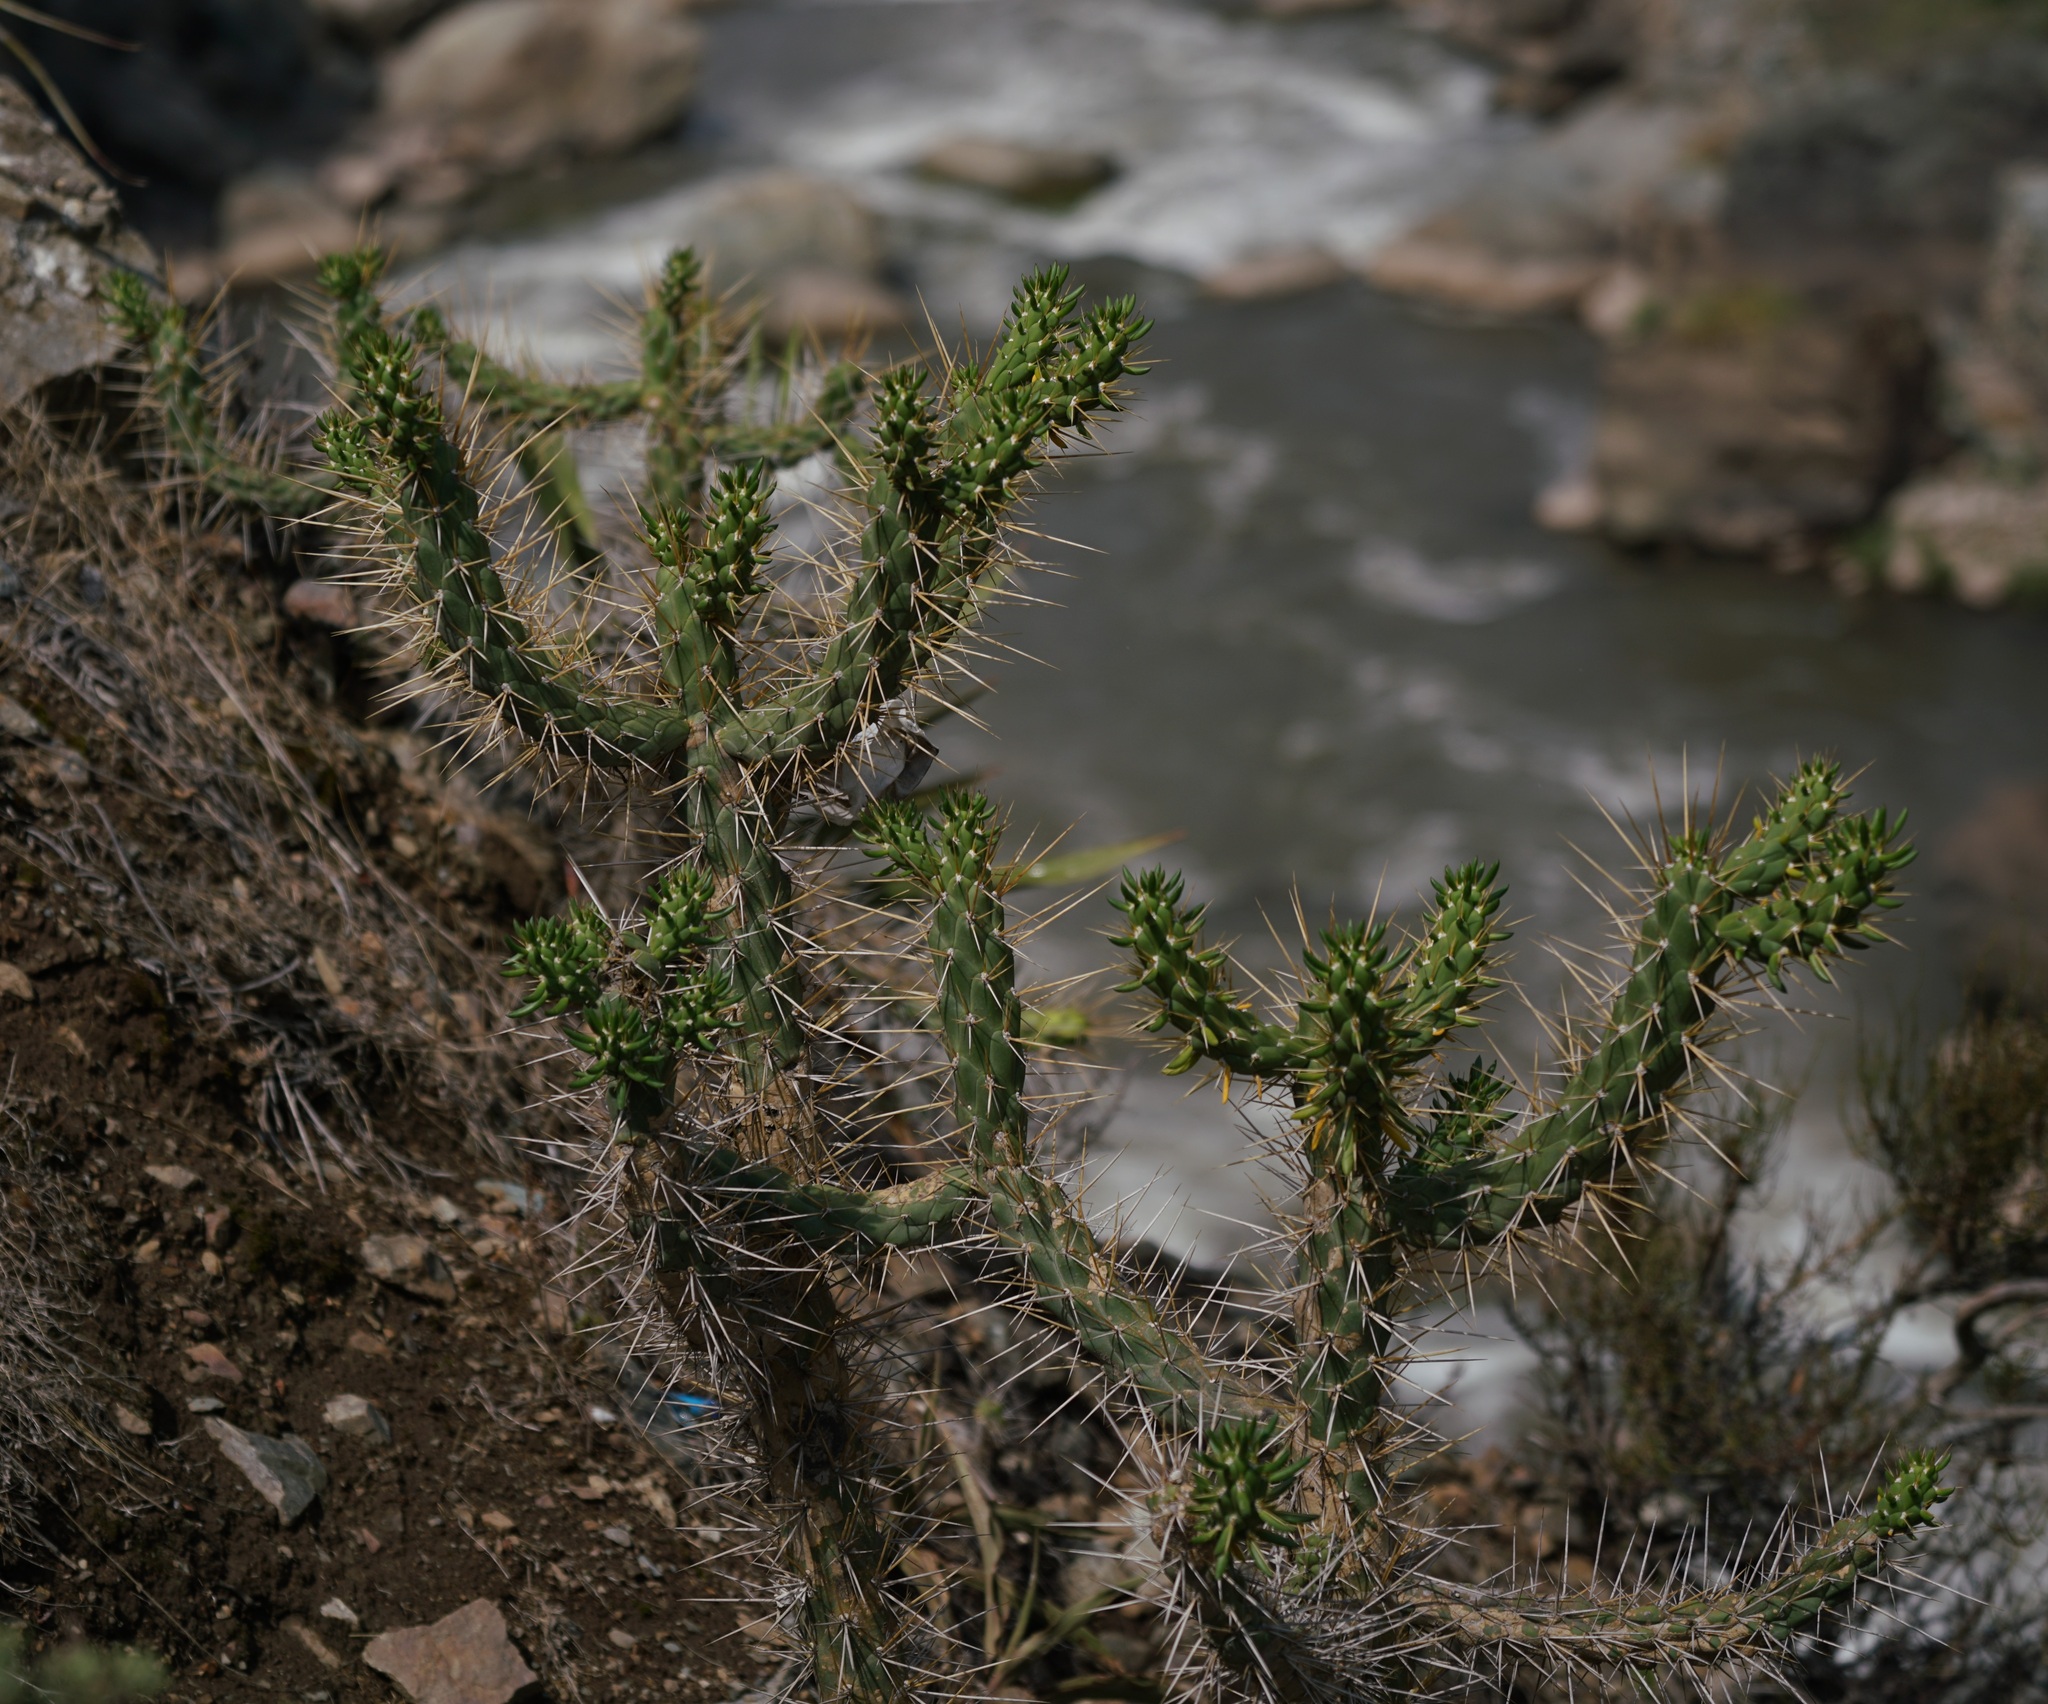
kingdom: Plantae
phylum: Tracheophyta
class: Magnoliopsida
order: Caryophyllales
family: Cactaceae
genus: Austrocylindropuntia
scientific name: Austrocylindropuntia subulata
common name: Eve's needle cactus
